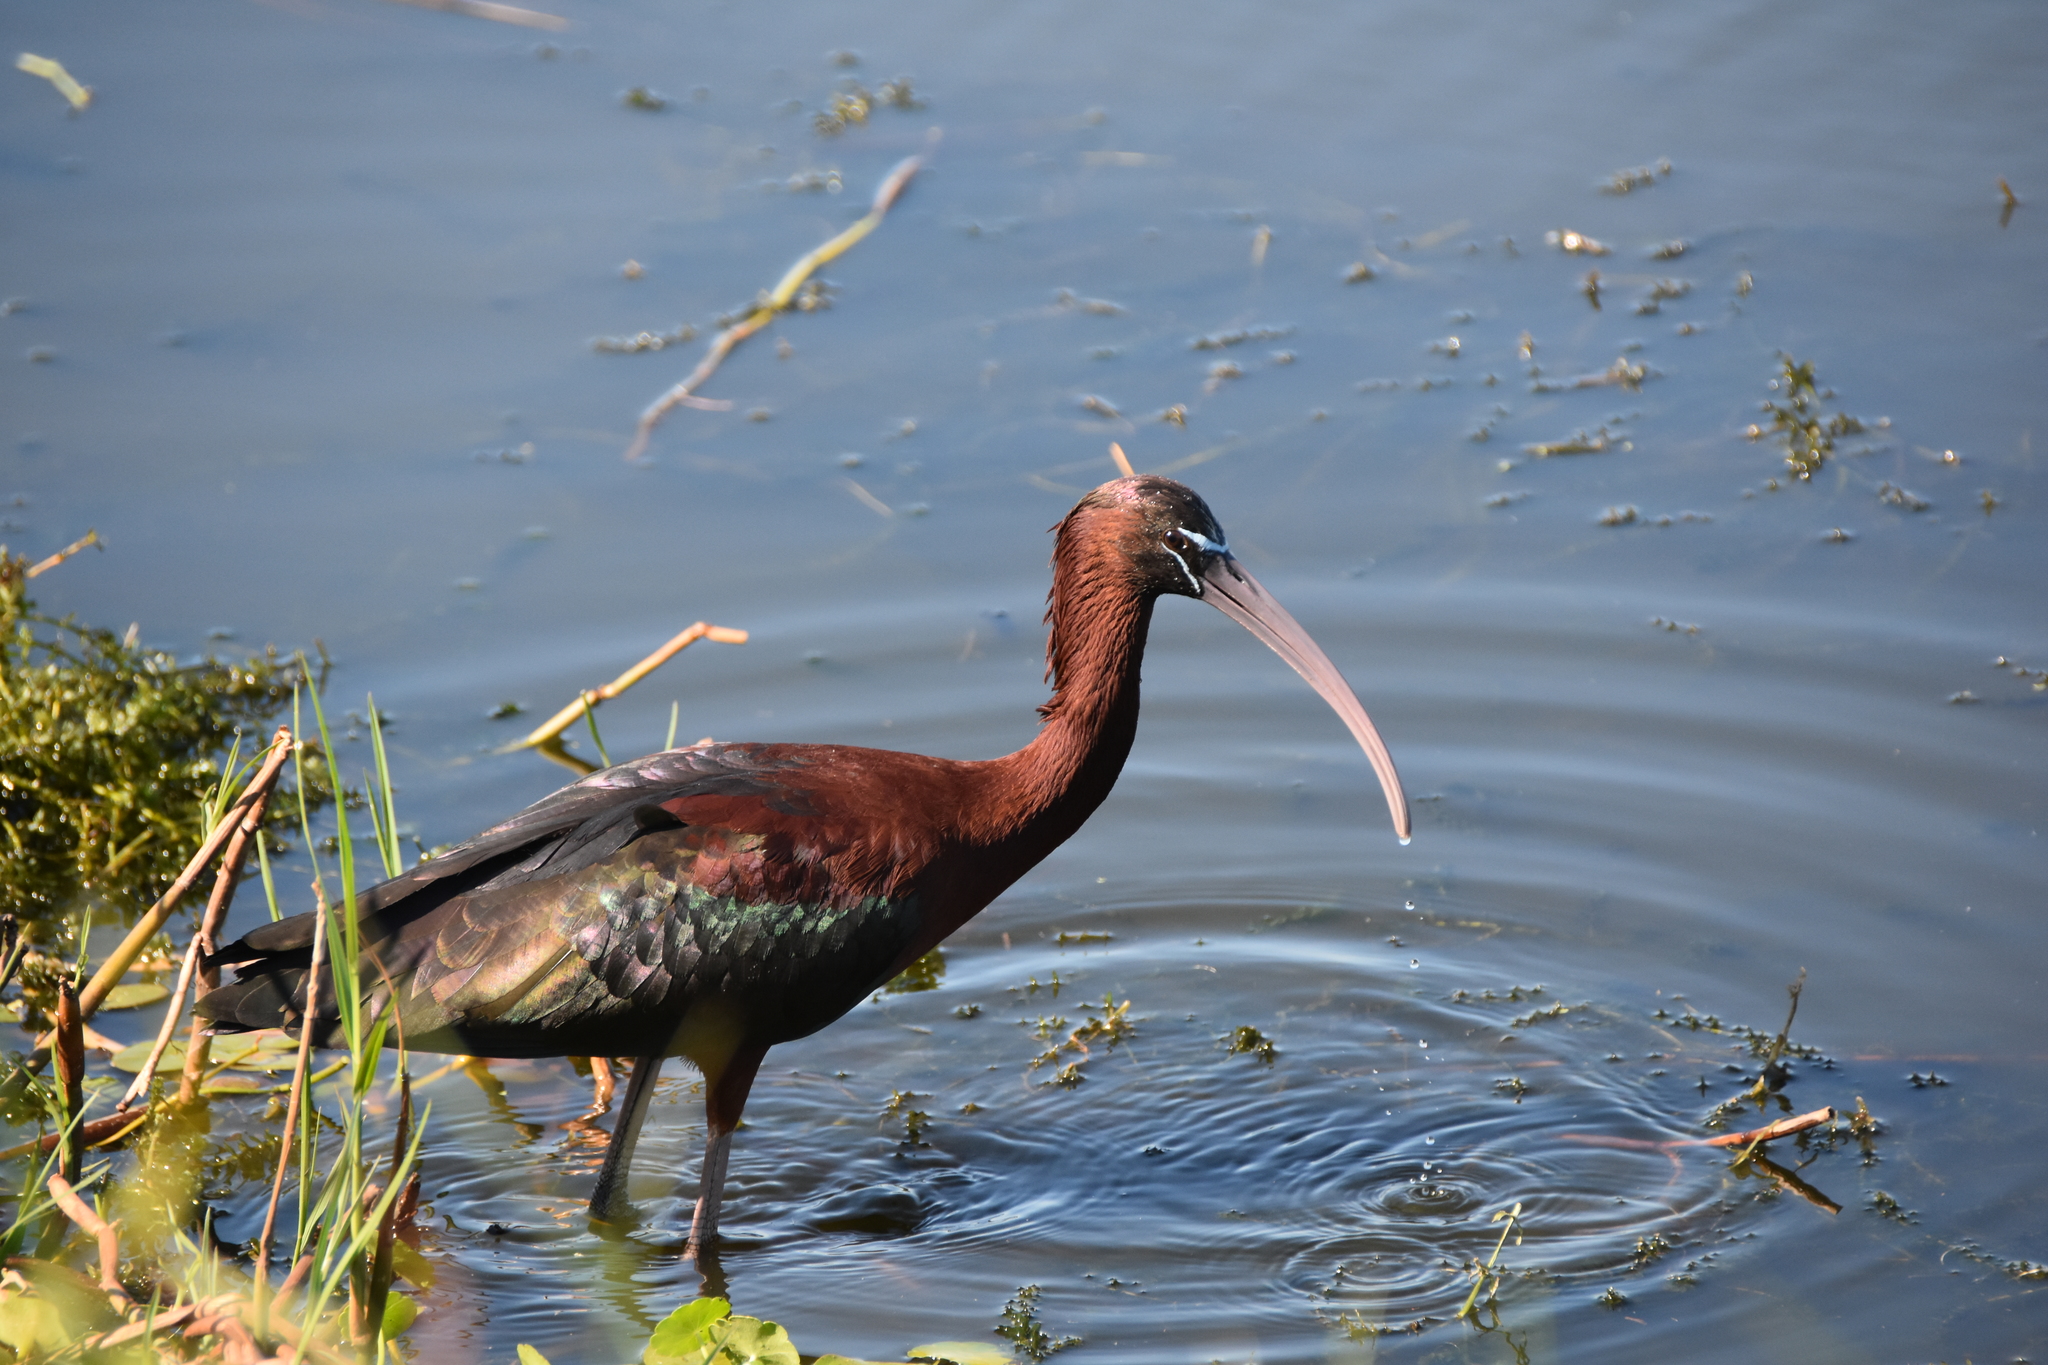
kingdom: Animalia
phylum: Chordata
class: Aves
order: Pelecaniformes
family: Threskiornithidae
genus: Plegadis
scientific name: Plegadis falcinellus
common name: Glossy ibis
